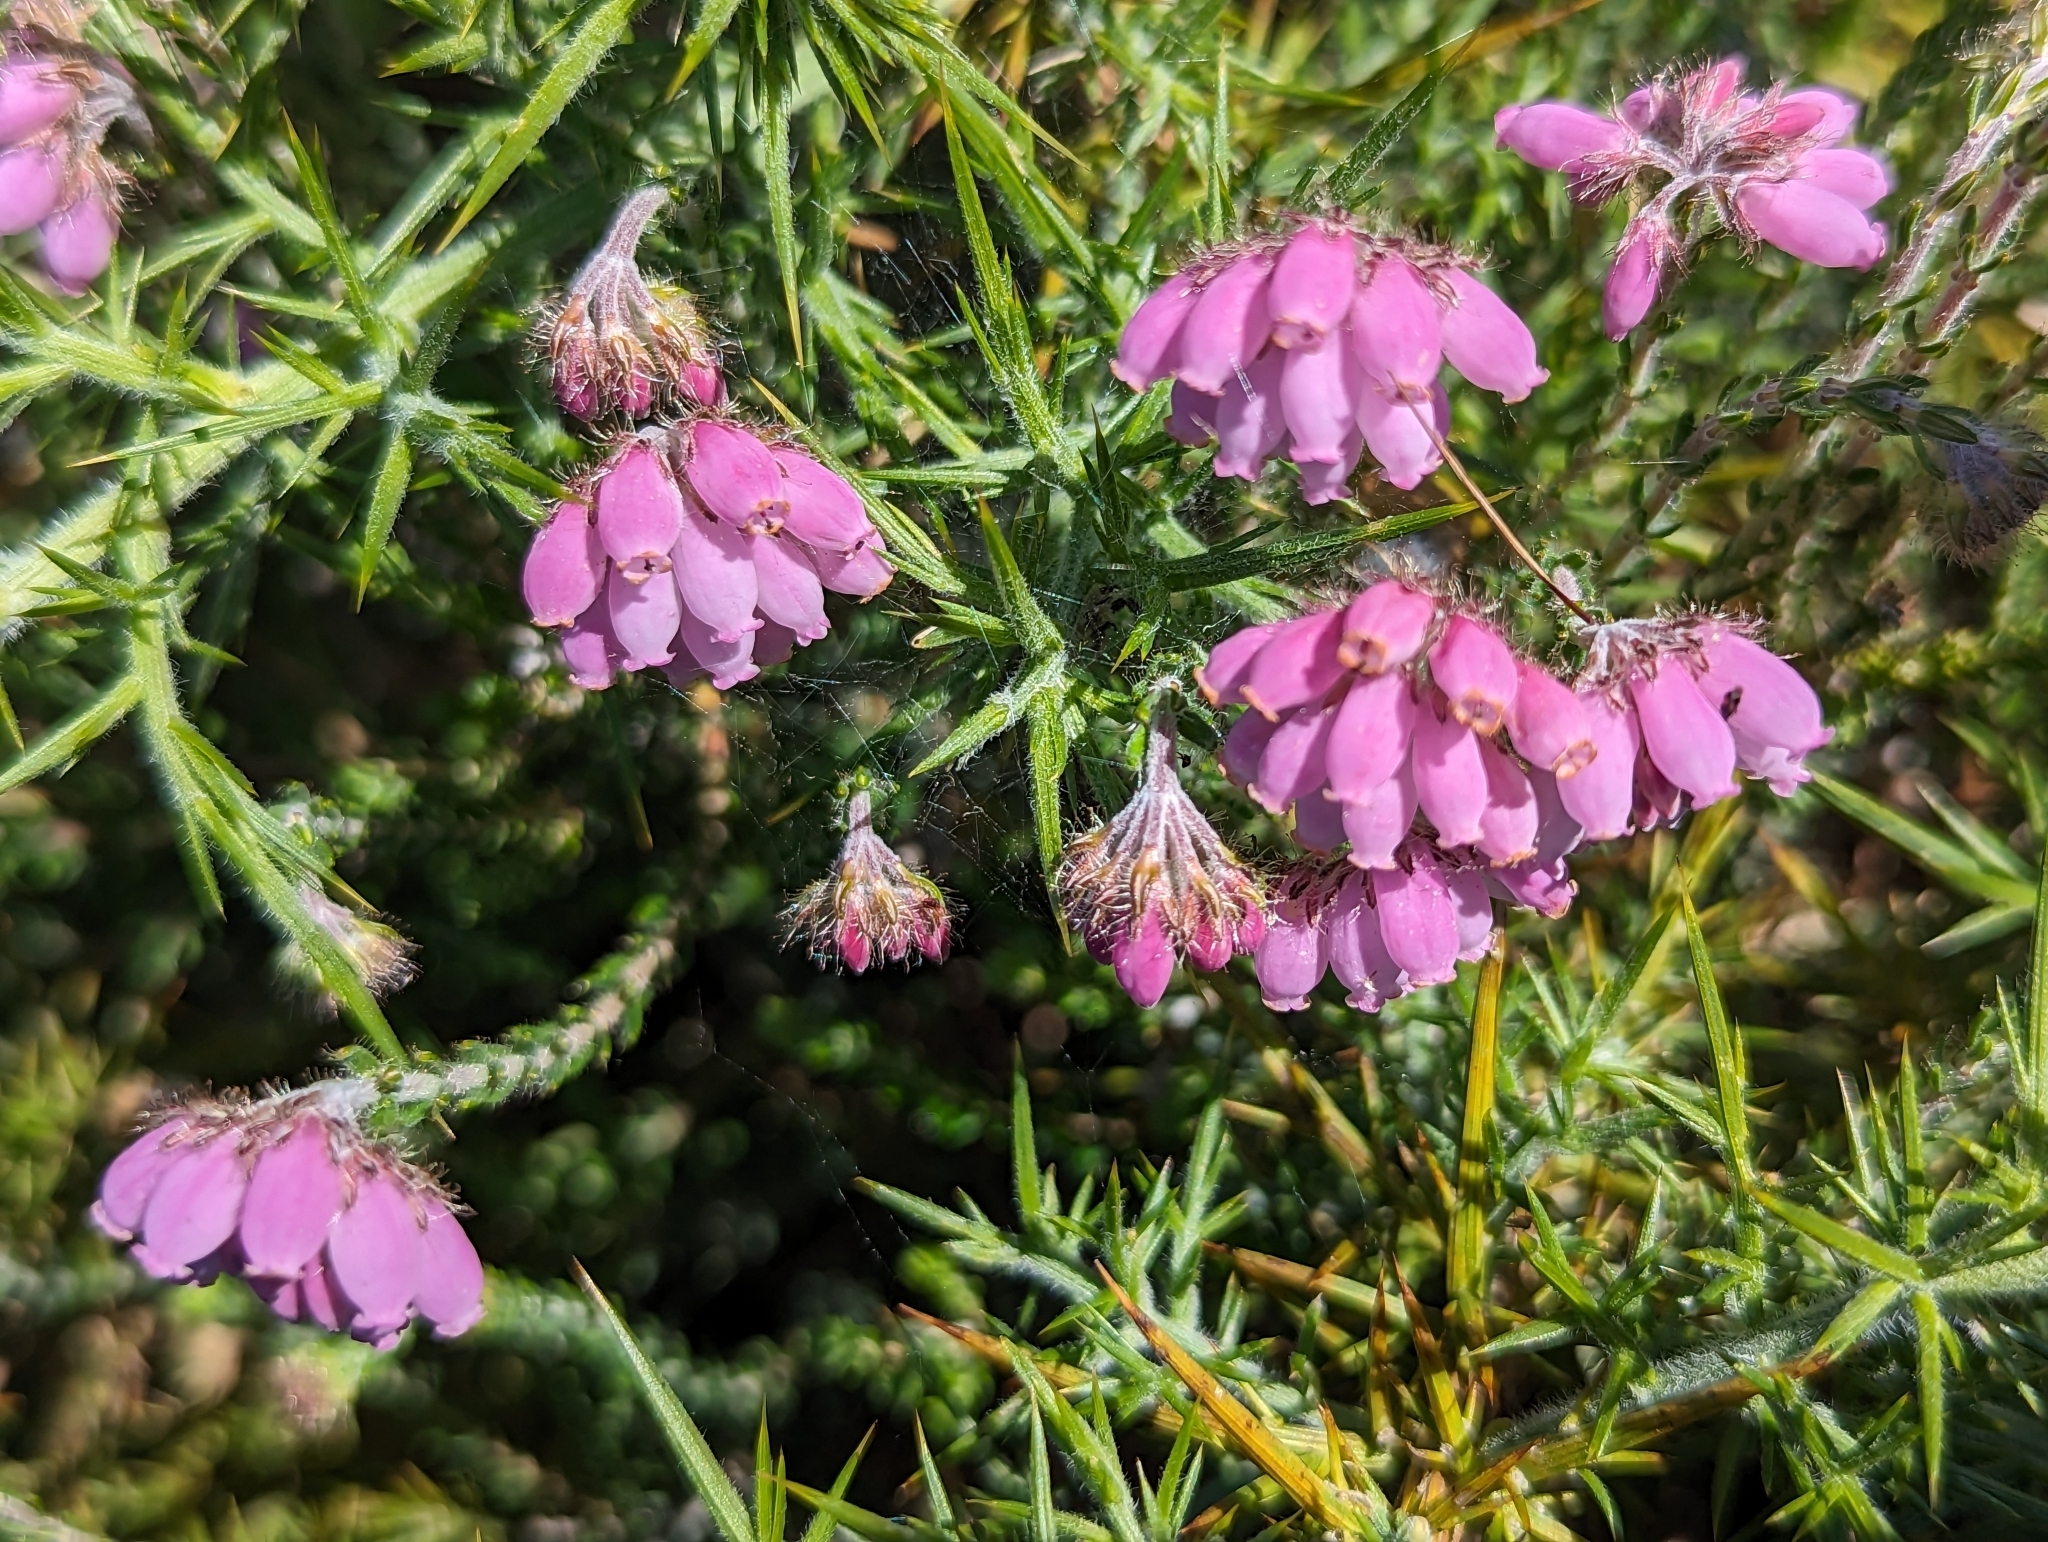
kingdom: Plantae
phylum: Tracheophyta
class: Magnoliopsida
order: Ericales
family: Ericaceae
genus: Erica
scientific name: Erica tetralix
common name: Cross-leaved heath
